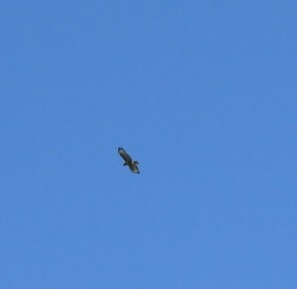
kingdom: Animalia
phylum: Chordata
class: Aves
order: Accipitriformes
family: Accipitridae
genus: Buteo
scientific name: Buteo buteo
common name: Common buzzard
